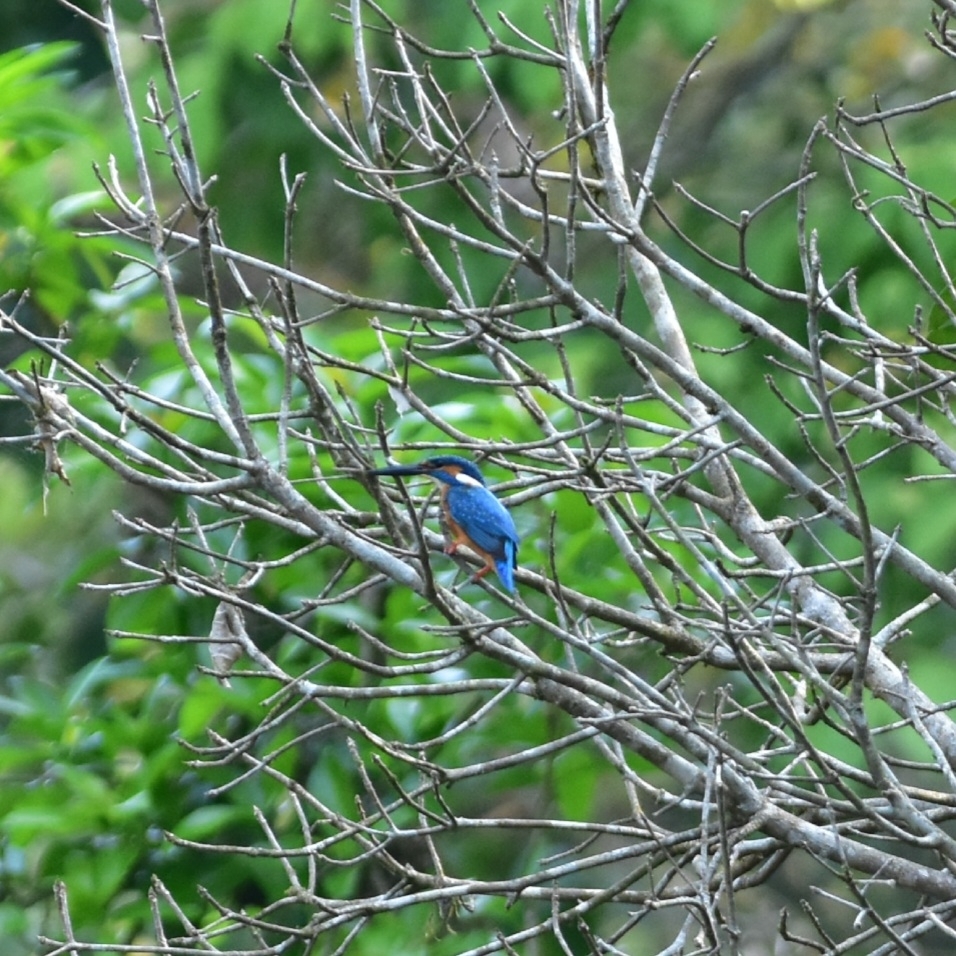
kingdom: Animalia
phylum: Chordata
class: Aves
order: Coraciiformes
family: Alcedinidae
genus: Alcedo
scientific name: Alcedo atthis
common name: Common kingfisher
